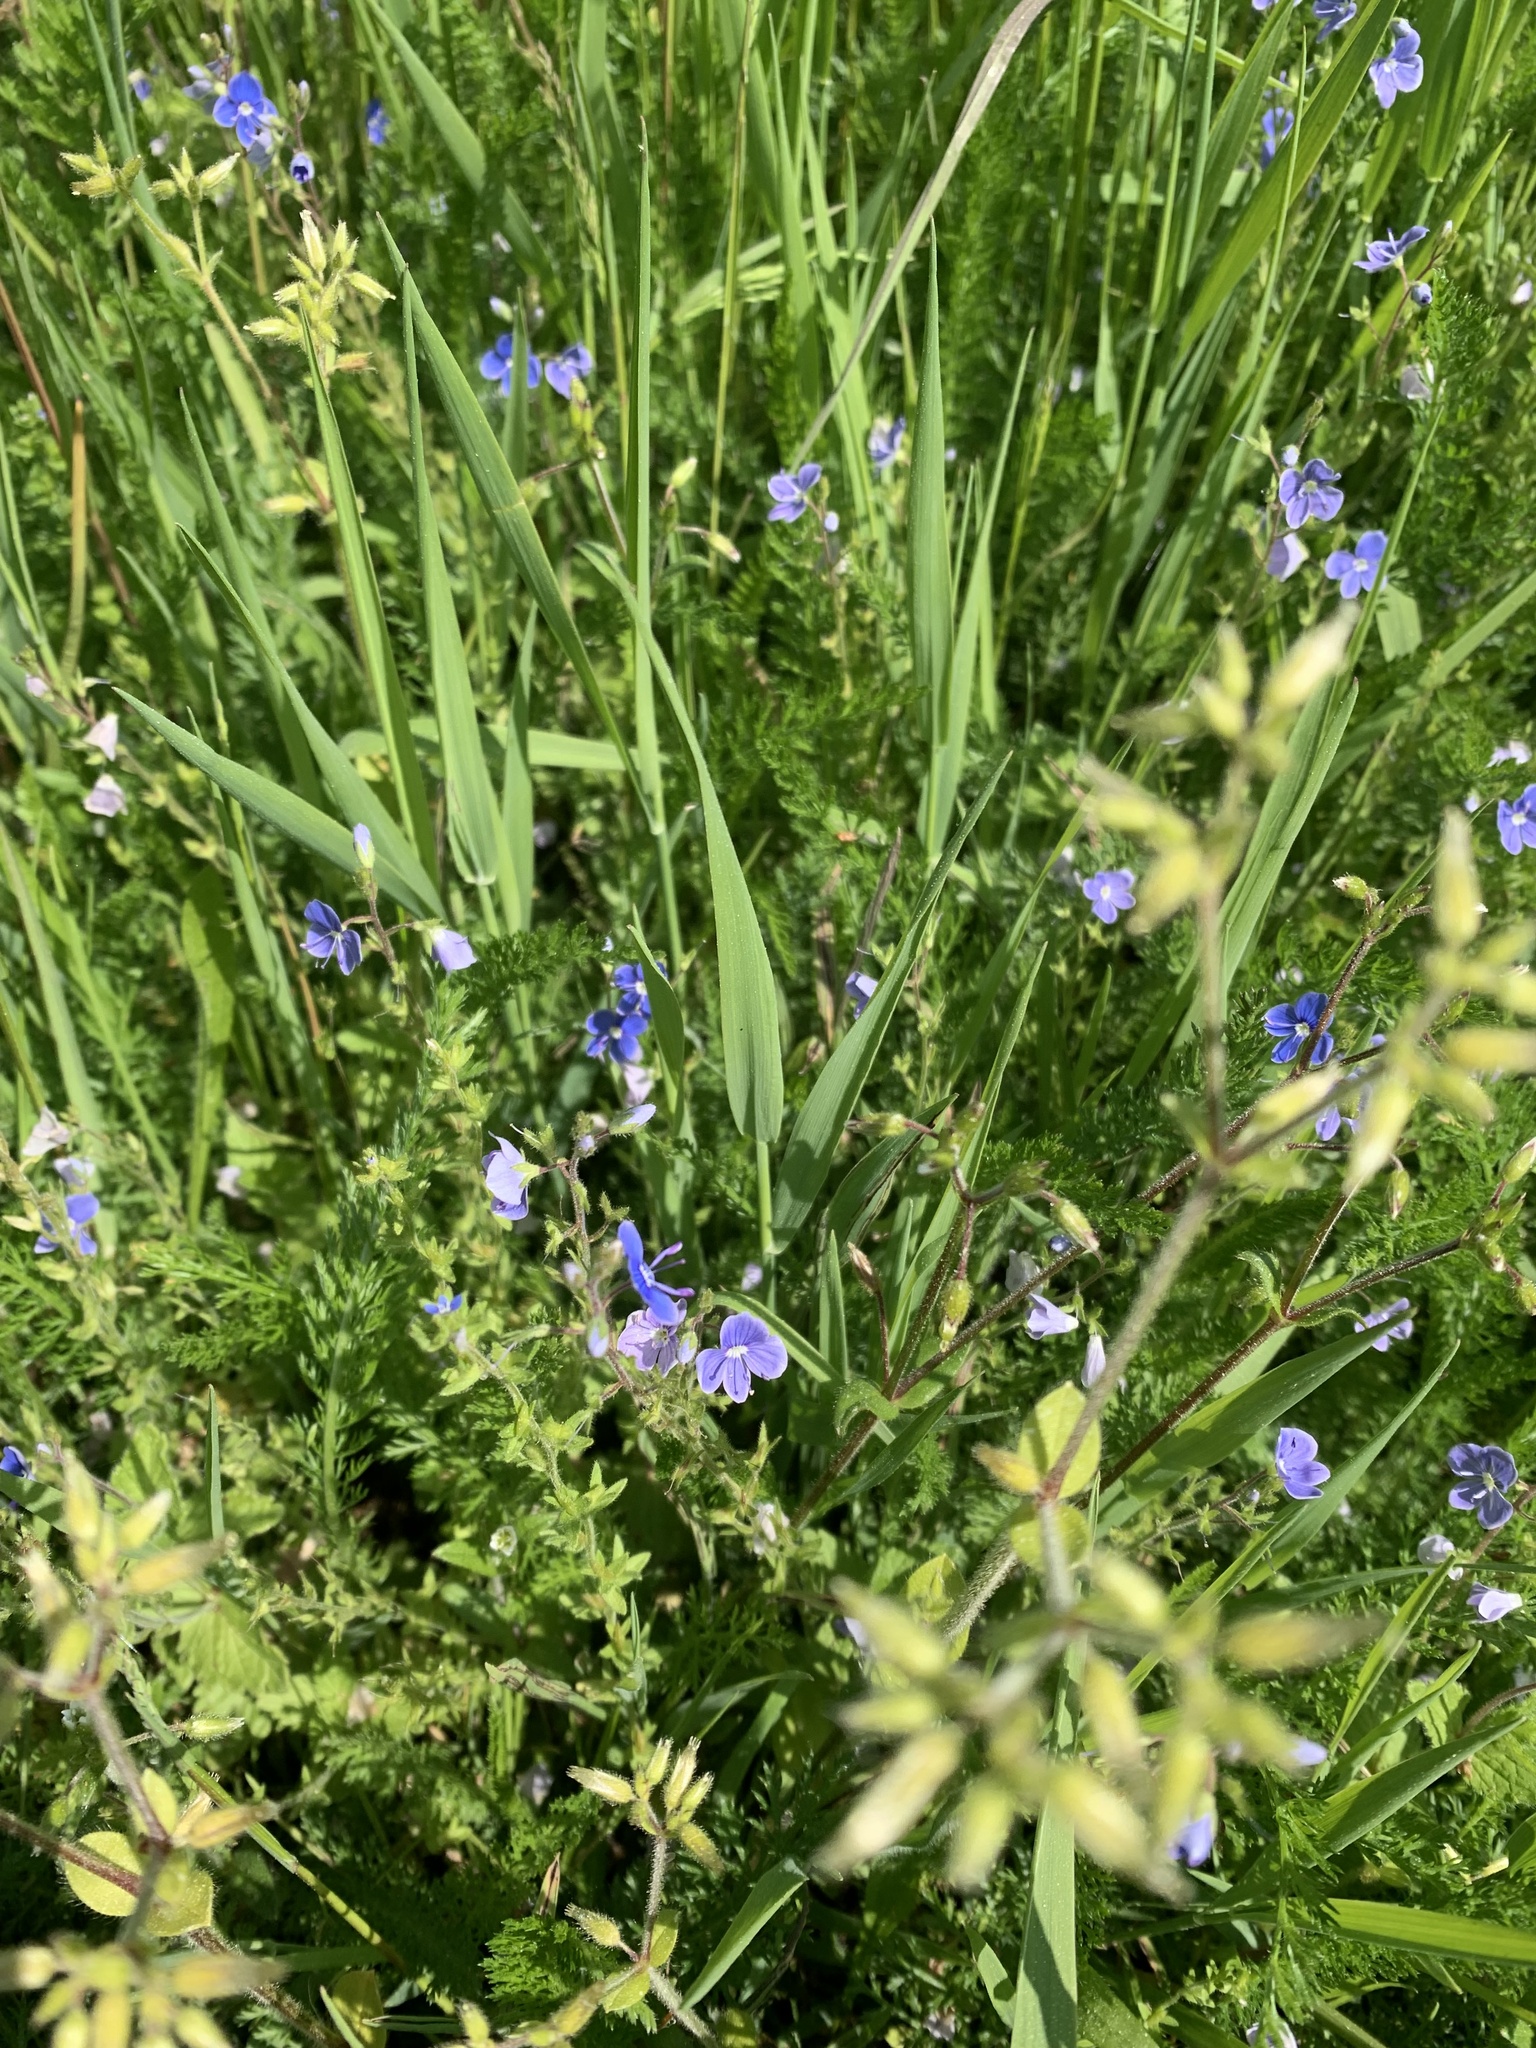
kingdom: Plantae
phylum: Tracheophyta
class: Magnoliopsida
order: Lamiales
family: Plantaginaceae
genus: Veronica
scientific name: Veronica chamaedrys
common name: Germander speedwell
